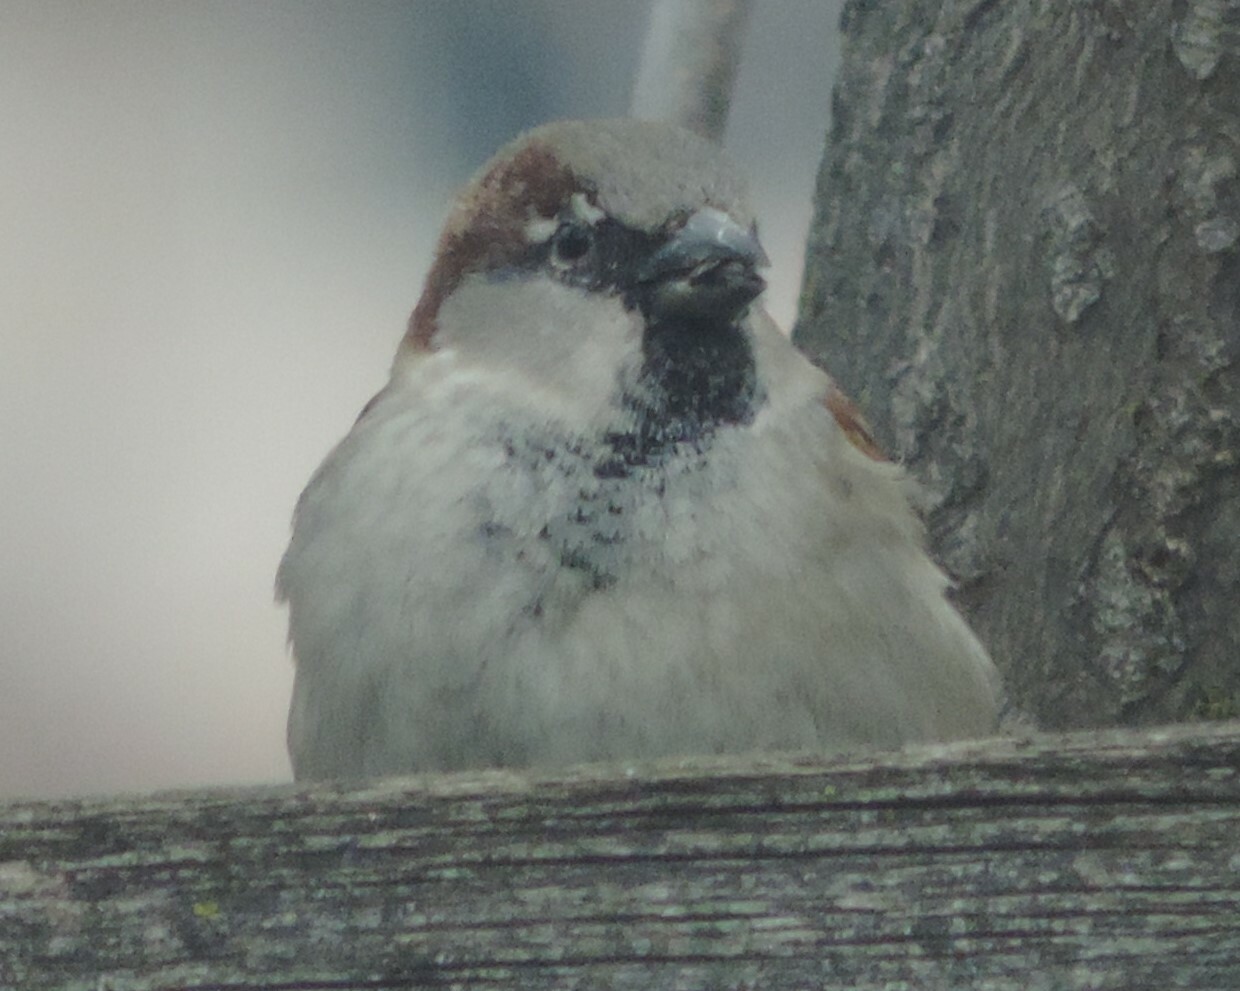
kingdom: Animalia
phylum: Chordata
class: Aves
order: Passeriformes
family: Passeridae
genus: Passer
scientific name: Passer domesticus
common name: House sparrow
